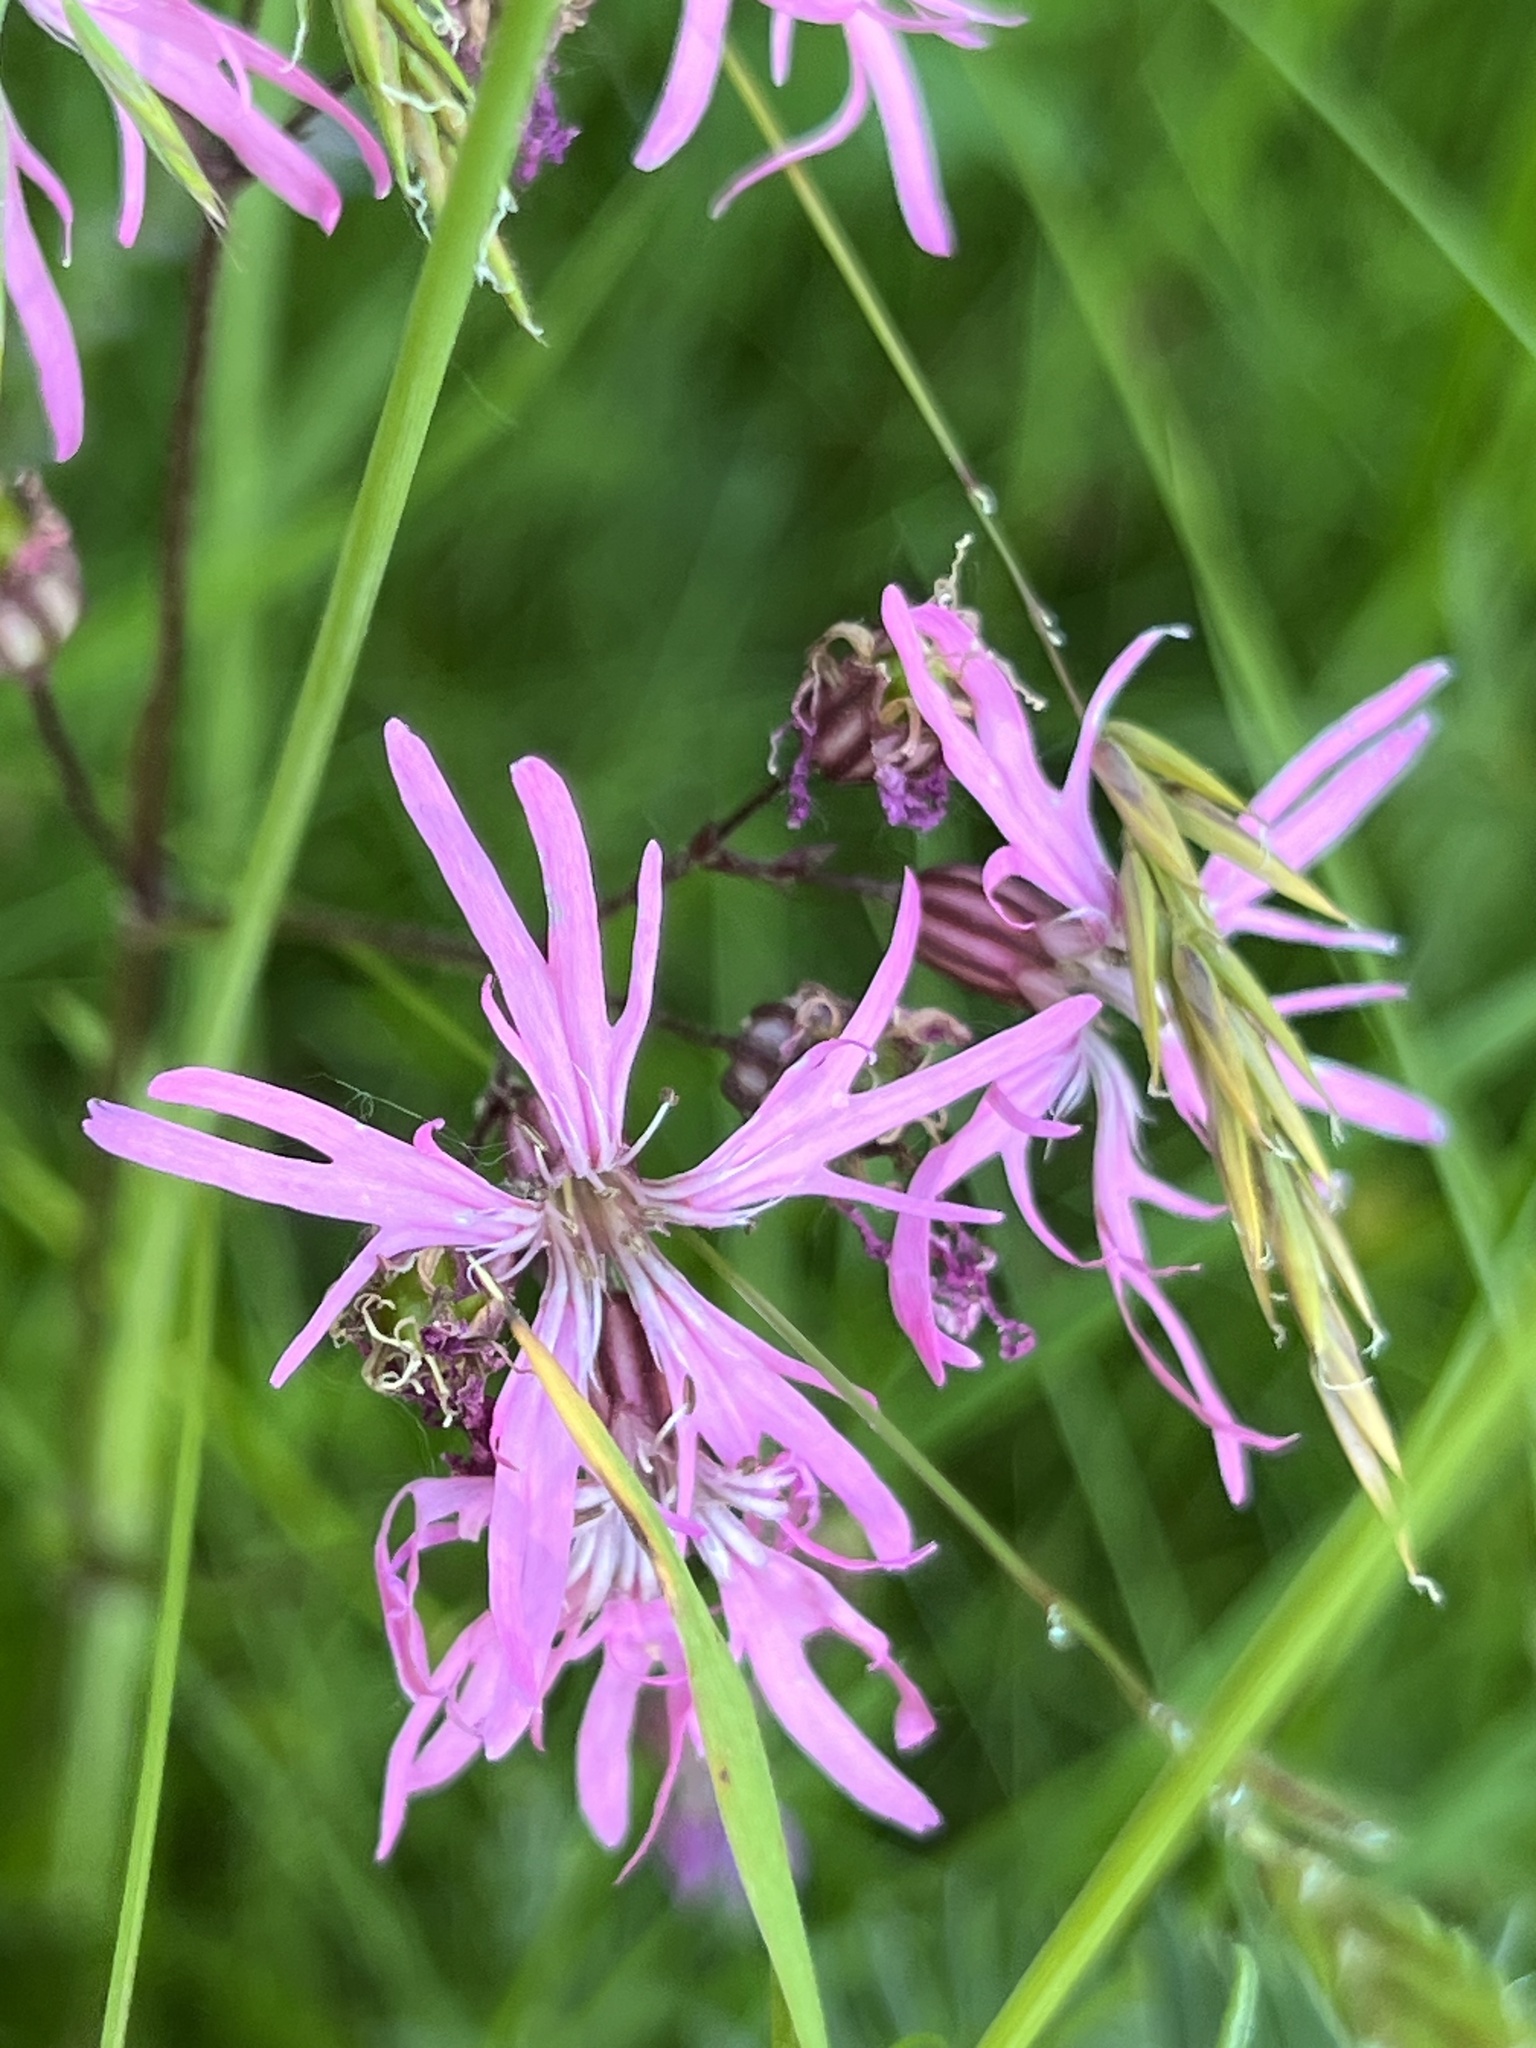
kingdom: Plantae
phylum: Tracheophyta
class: Magnoliopsida
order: Caryophyllales
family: Caryophyllaceae
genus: Silene
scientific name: Silene flos-cuculi
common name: Ragged-robin
